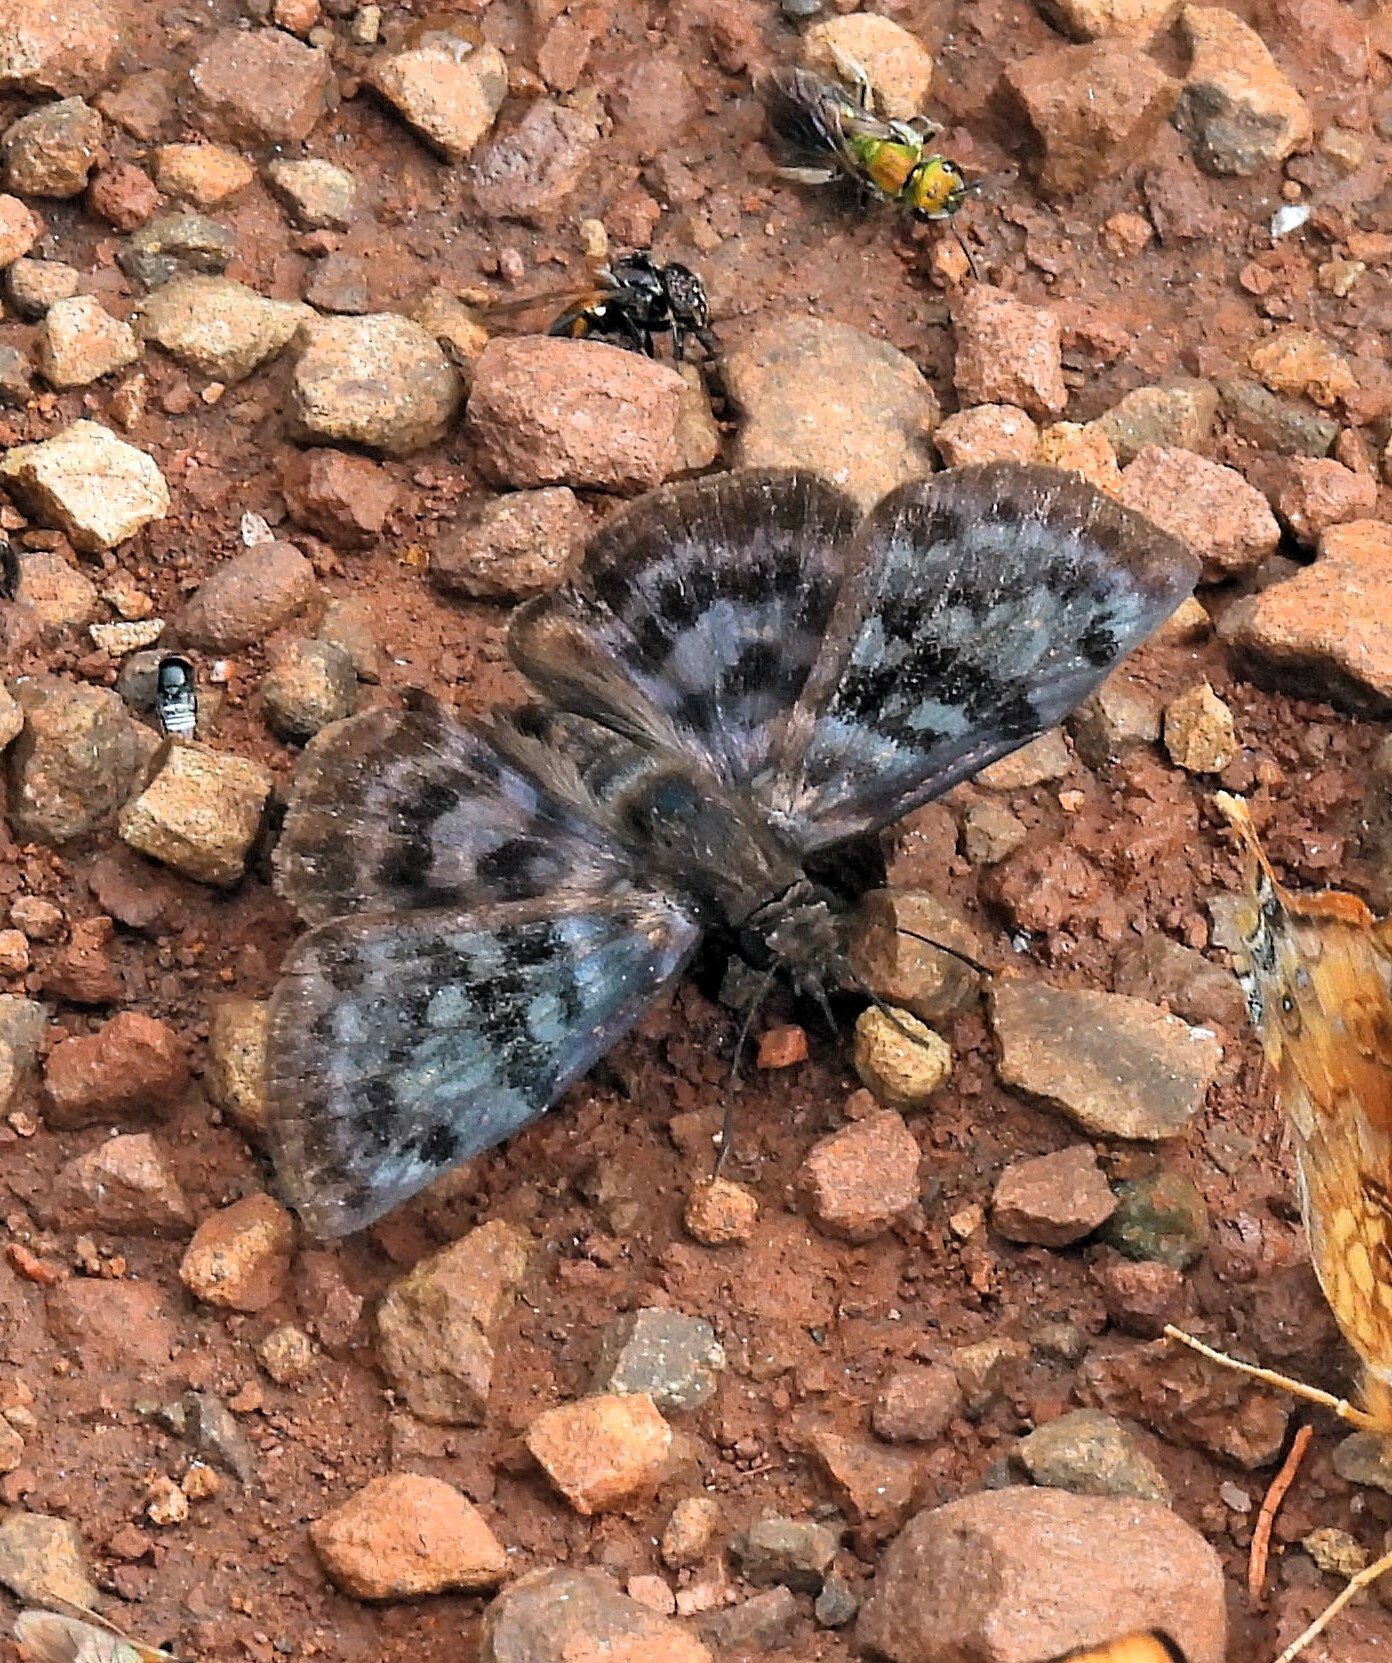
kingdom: Animalia
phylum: Arthropoda
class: Insecta
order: Lepidoptera
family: Hesperiidae
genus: Ebrietas
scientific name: Ebrietas anacreon
